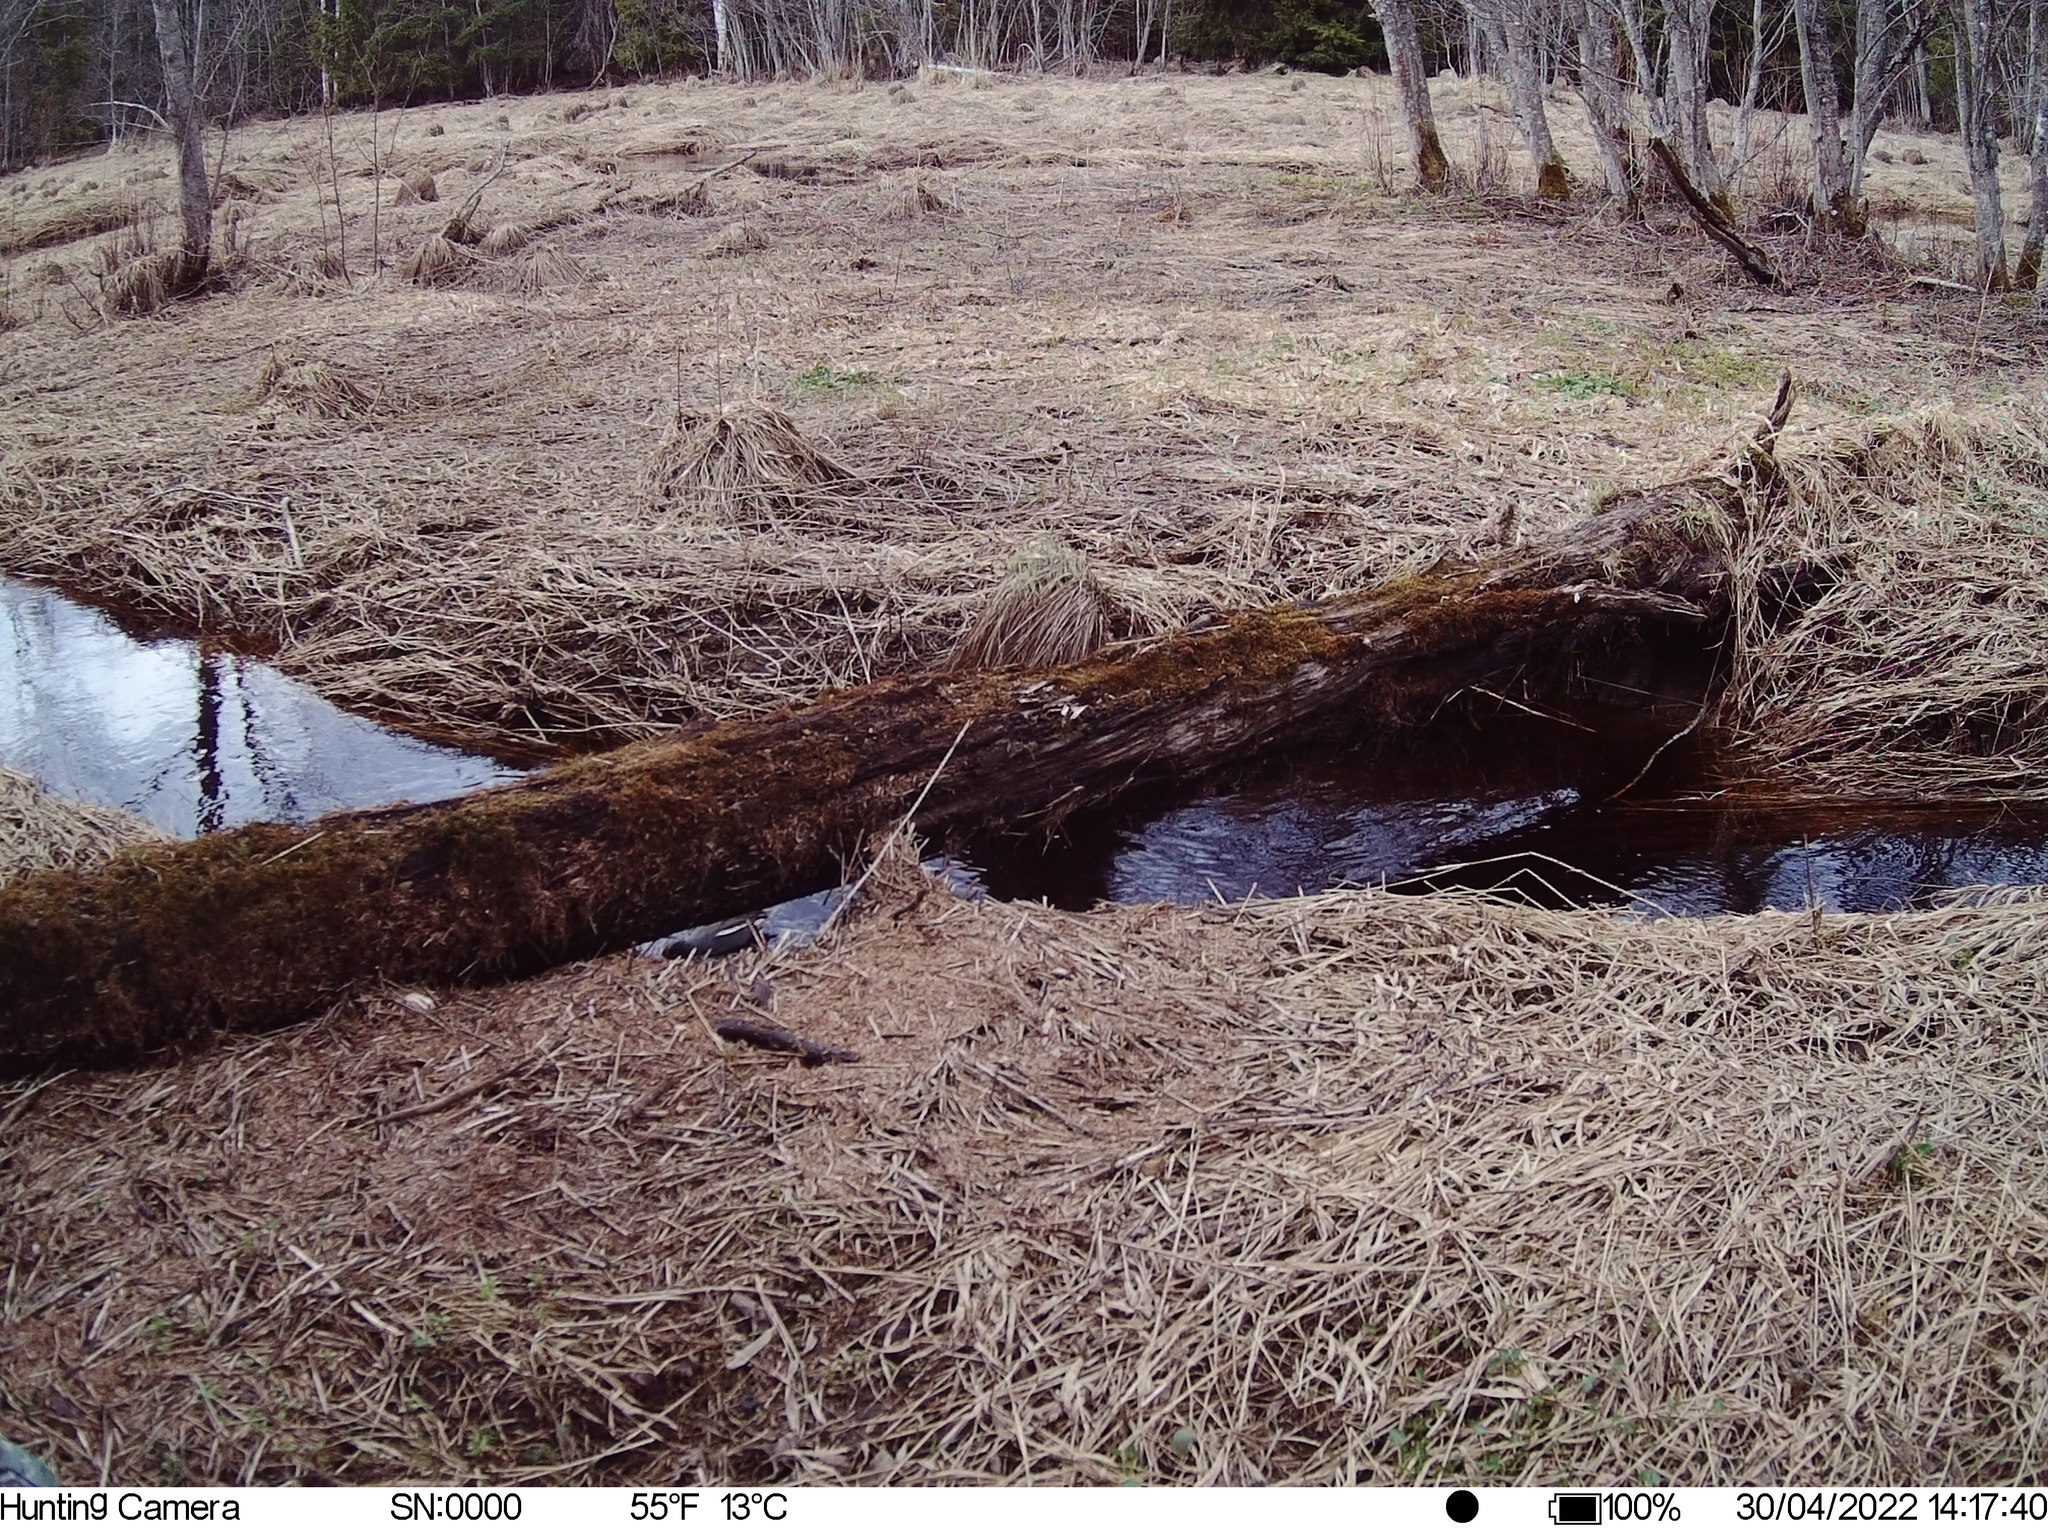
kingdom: Animalia
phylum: Chordata
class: Aves
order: Anseriformes
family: Anatidae
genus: Anas
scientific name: Anas crecca
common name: Eurasian teal
